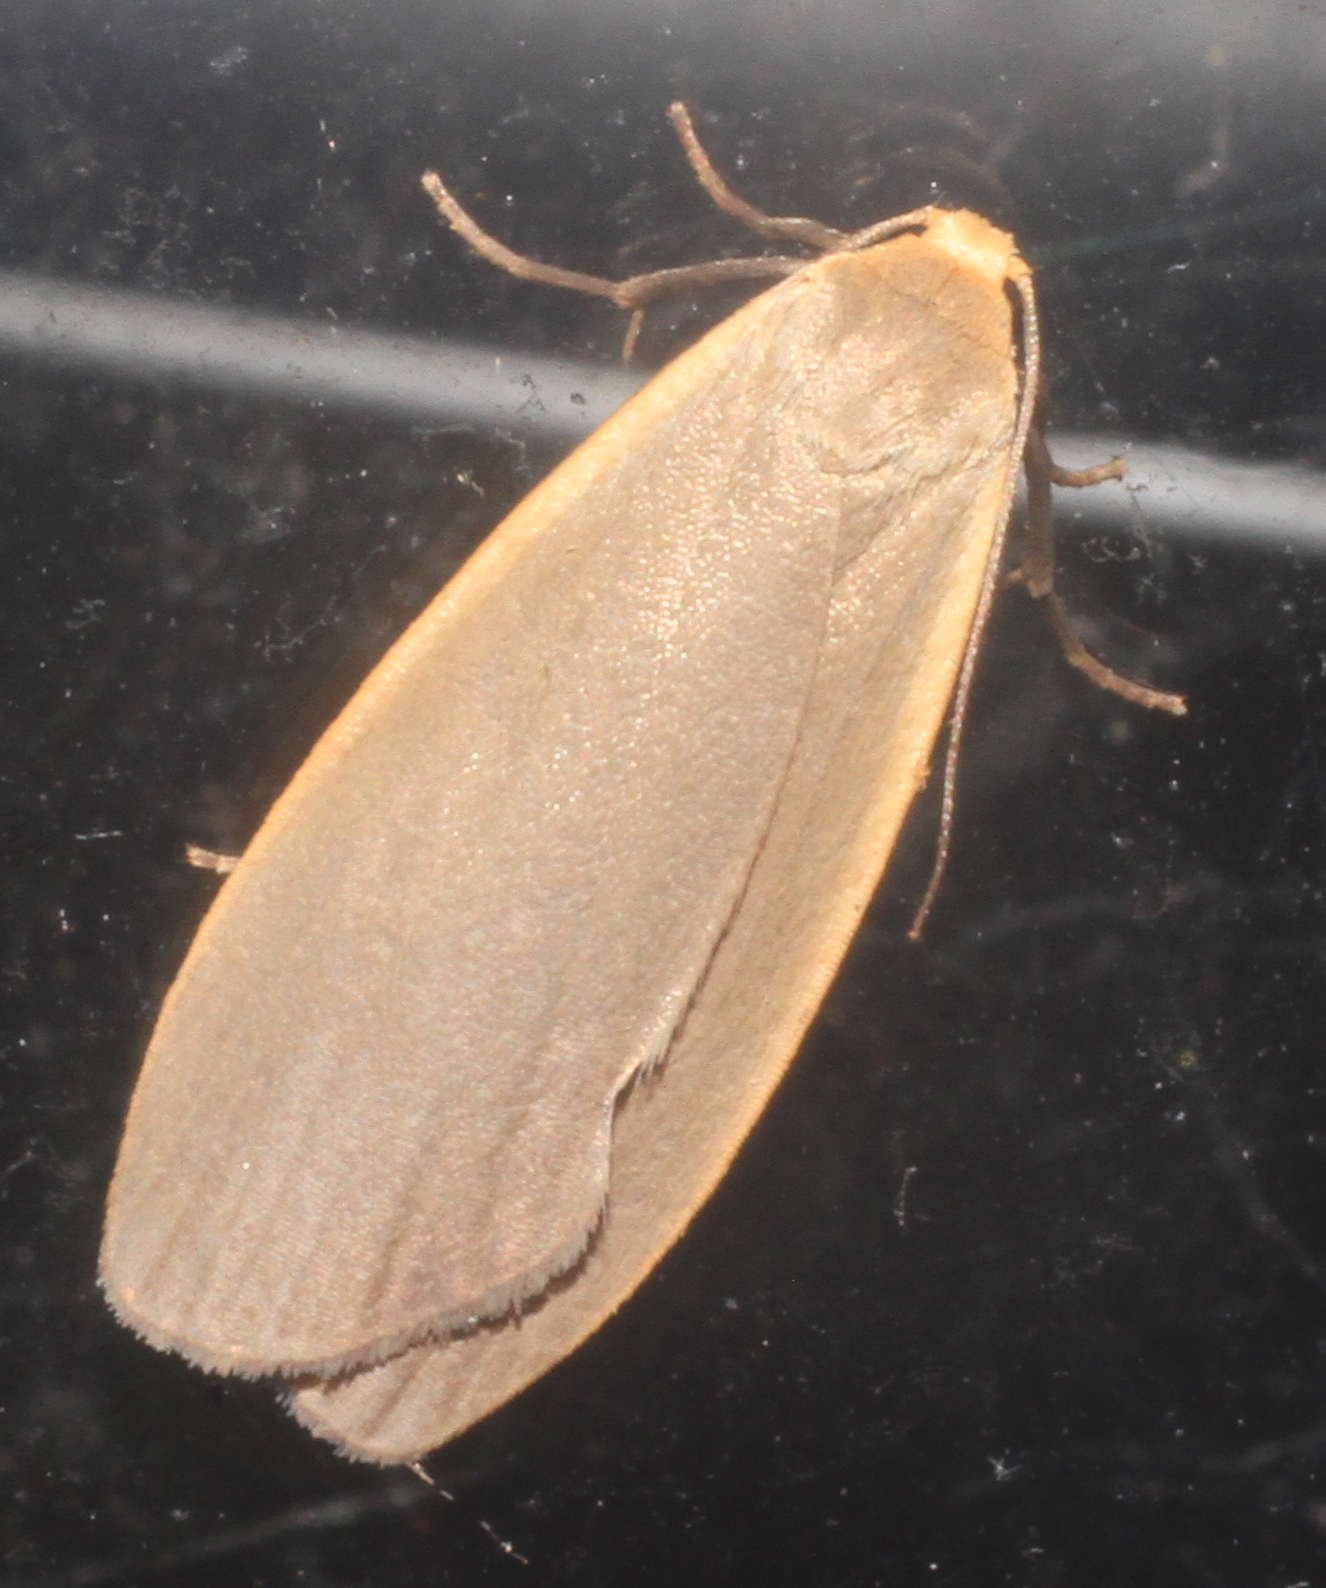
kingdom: Animalia
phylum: Arthropoda
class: Insecta
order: Lepidoptera
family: Erebidae
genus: Collita
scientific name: Collita griseola
